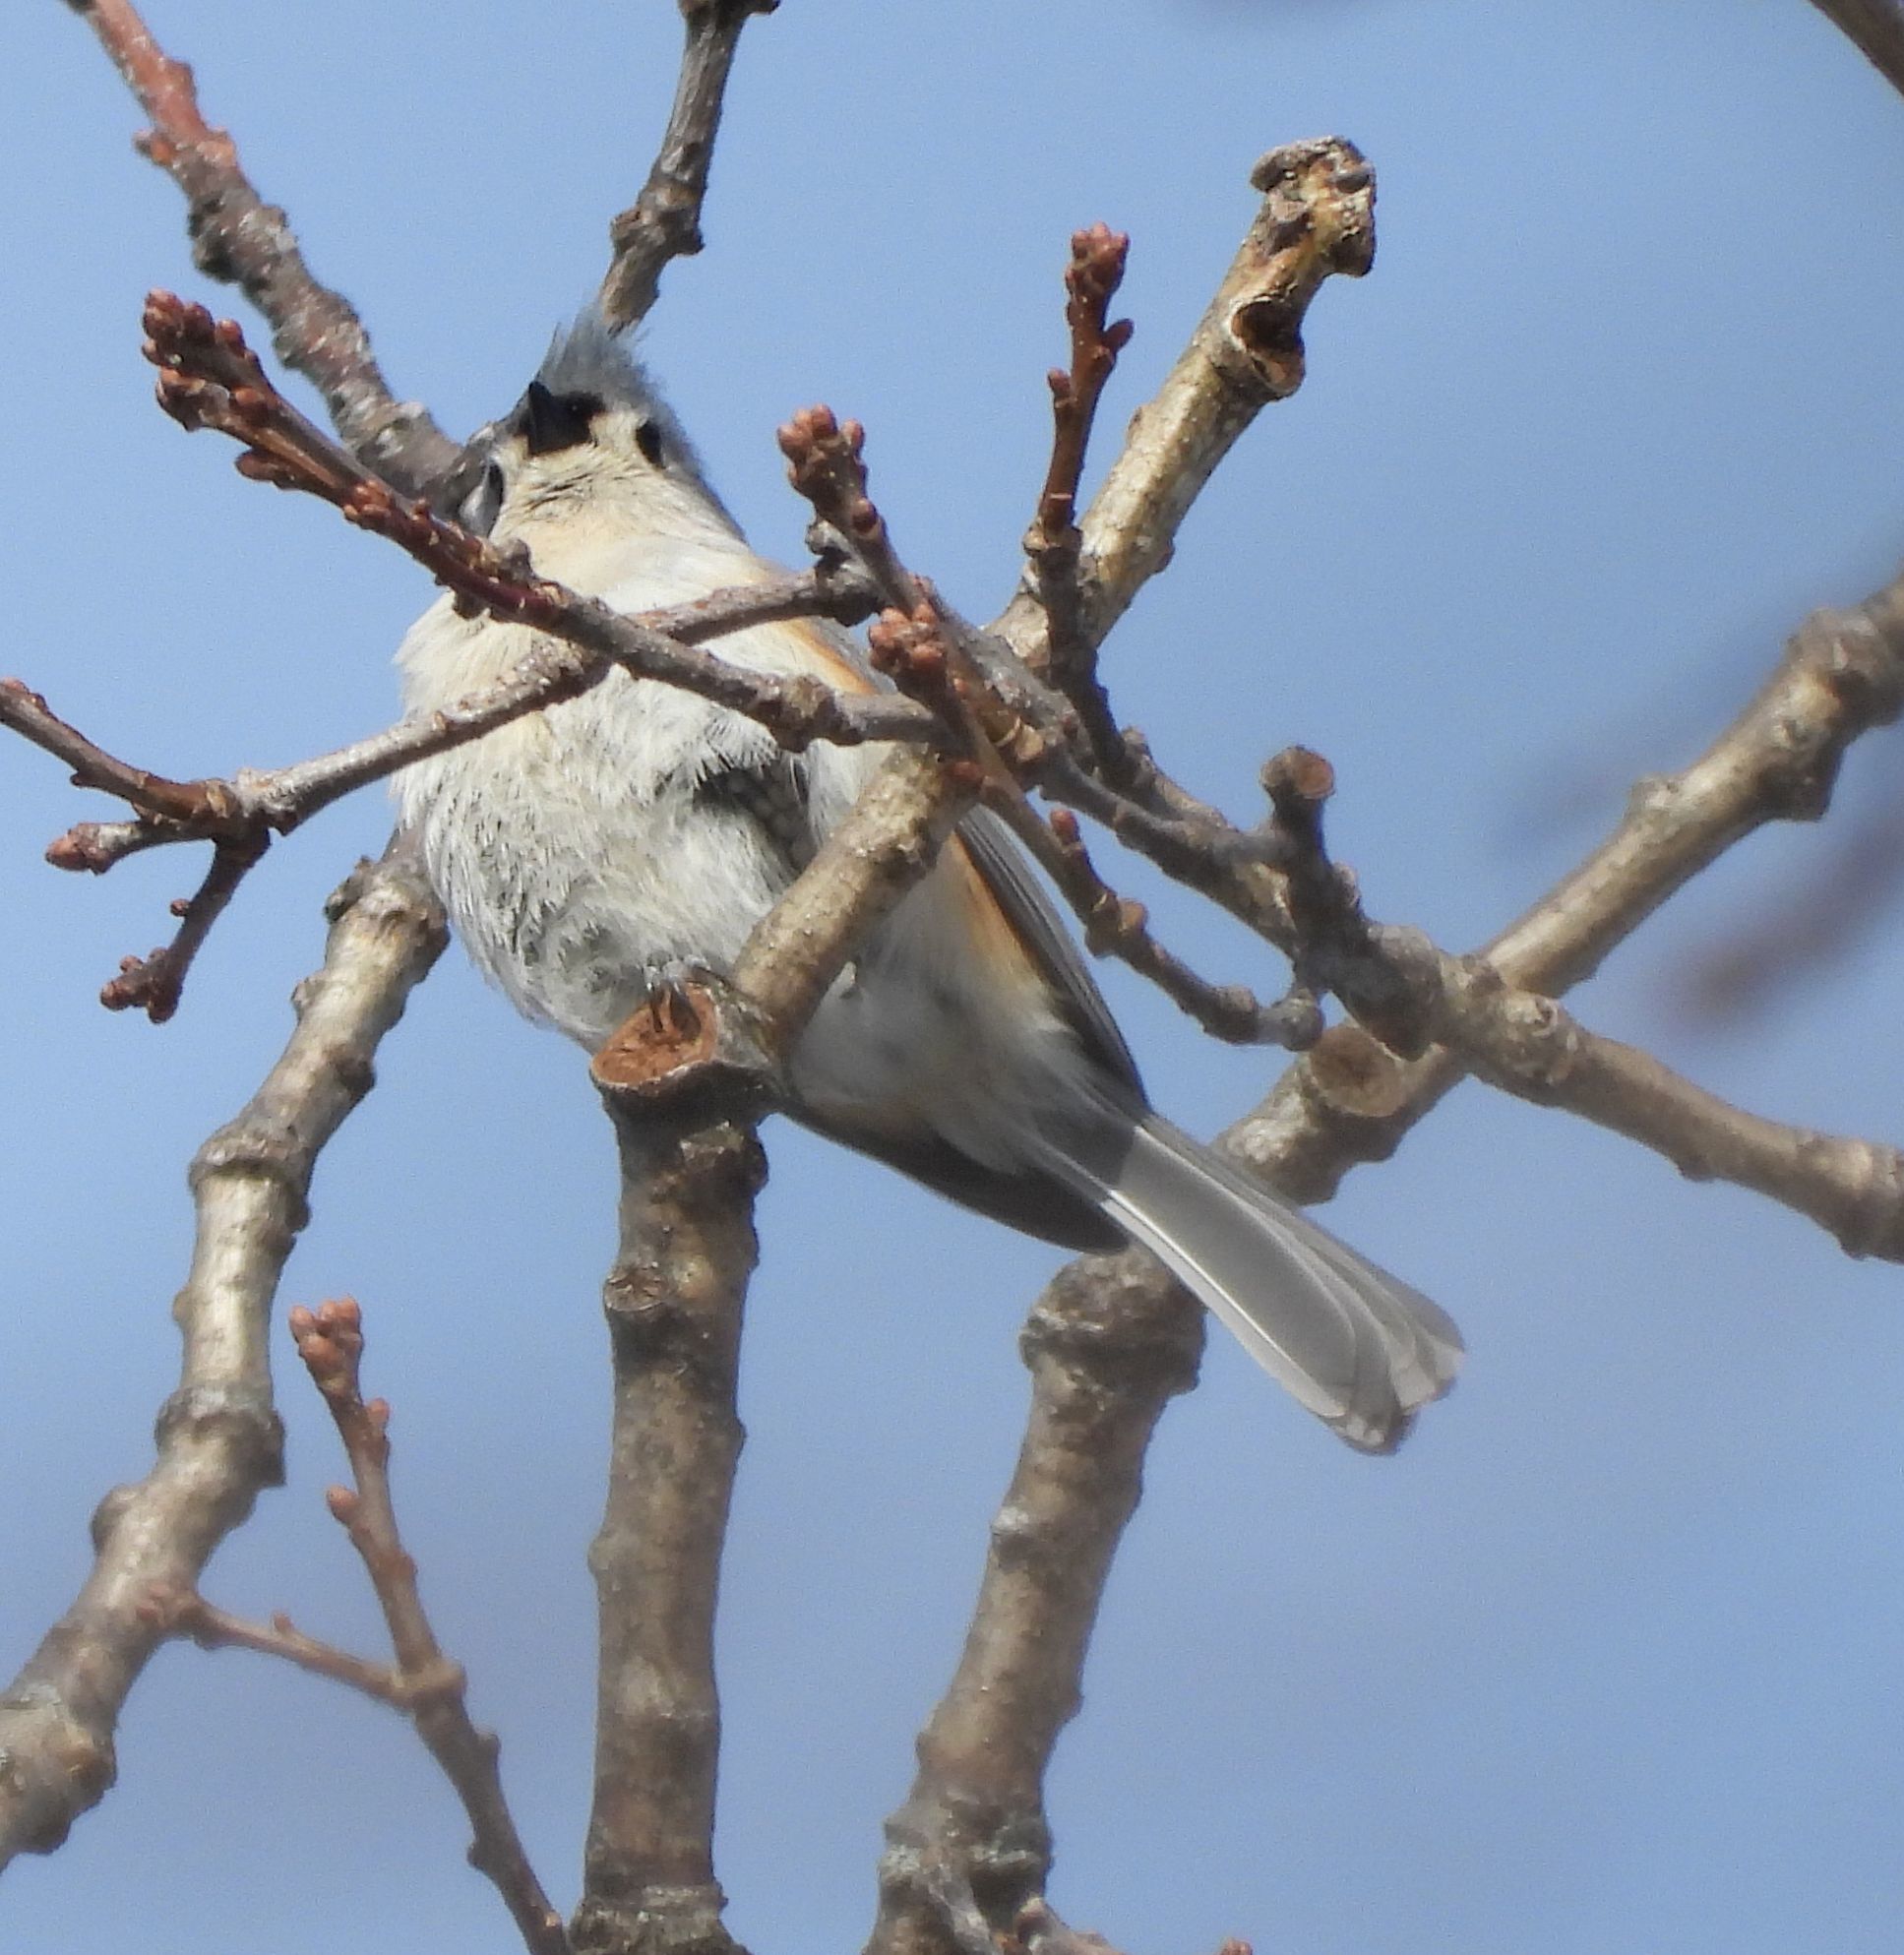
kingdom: Animalia
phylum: Chordata
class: Aves
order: Passeriformes
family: Paridae
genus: Baeolophus
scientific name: Baeolophus bicolor
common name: Tufted titmouse
